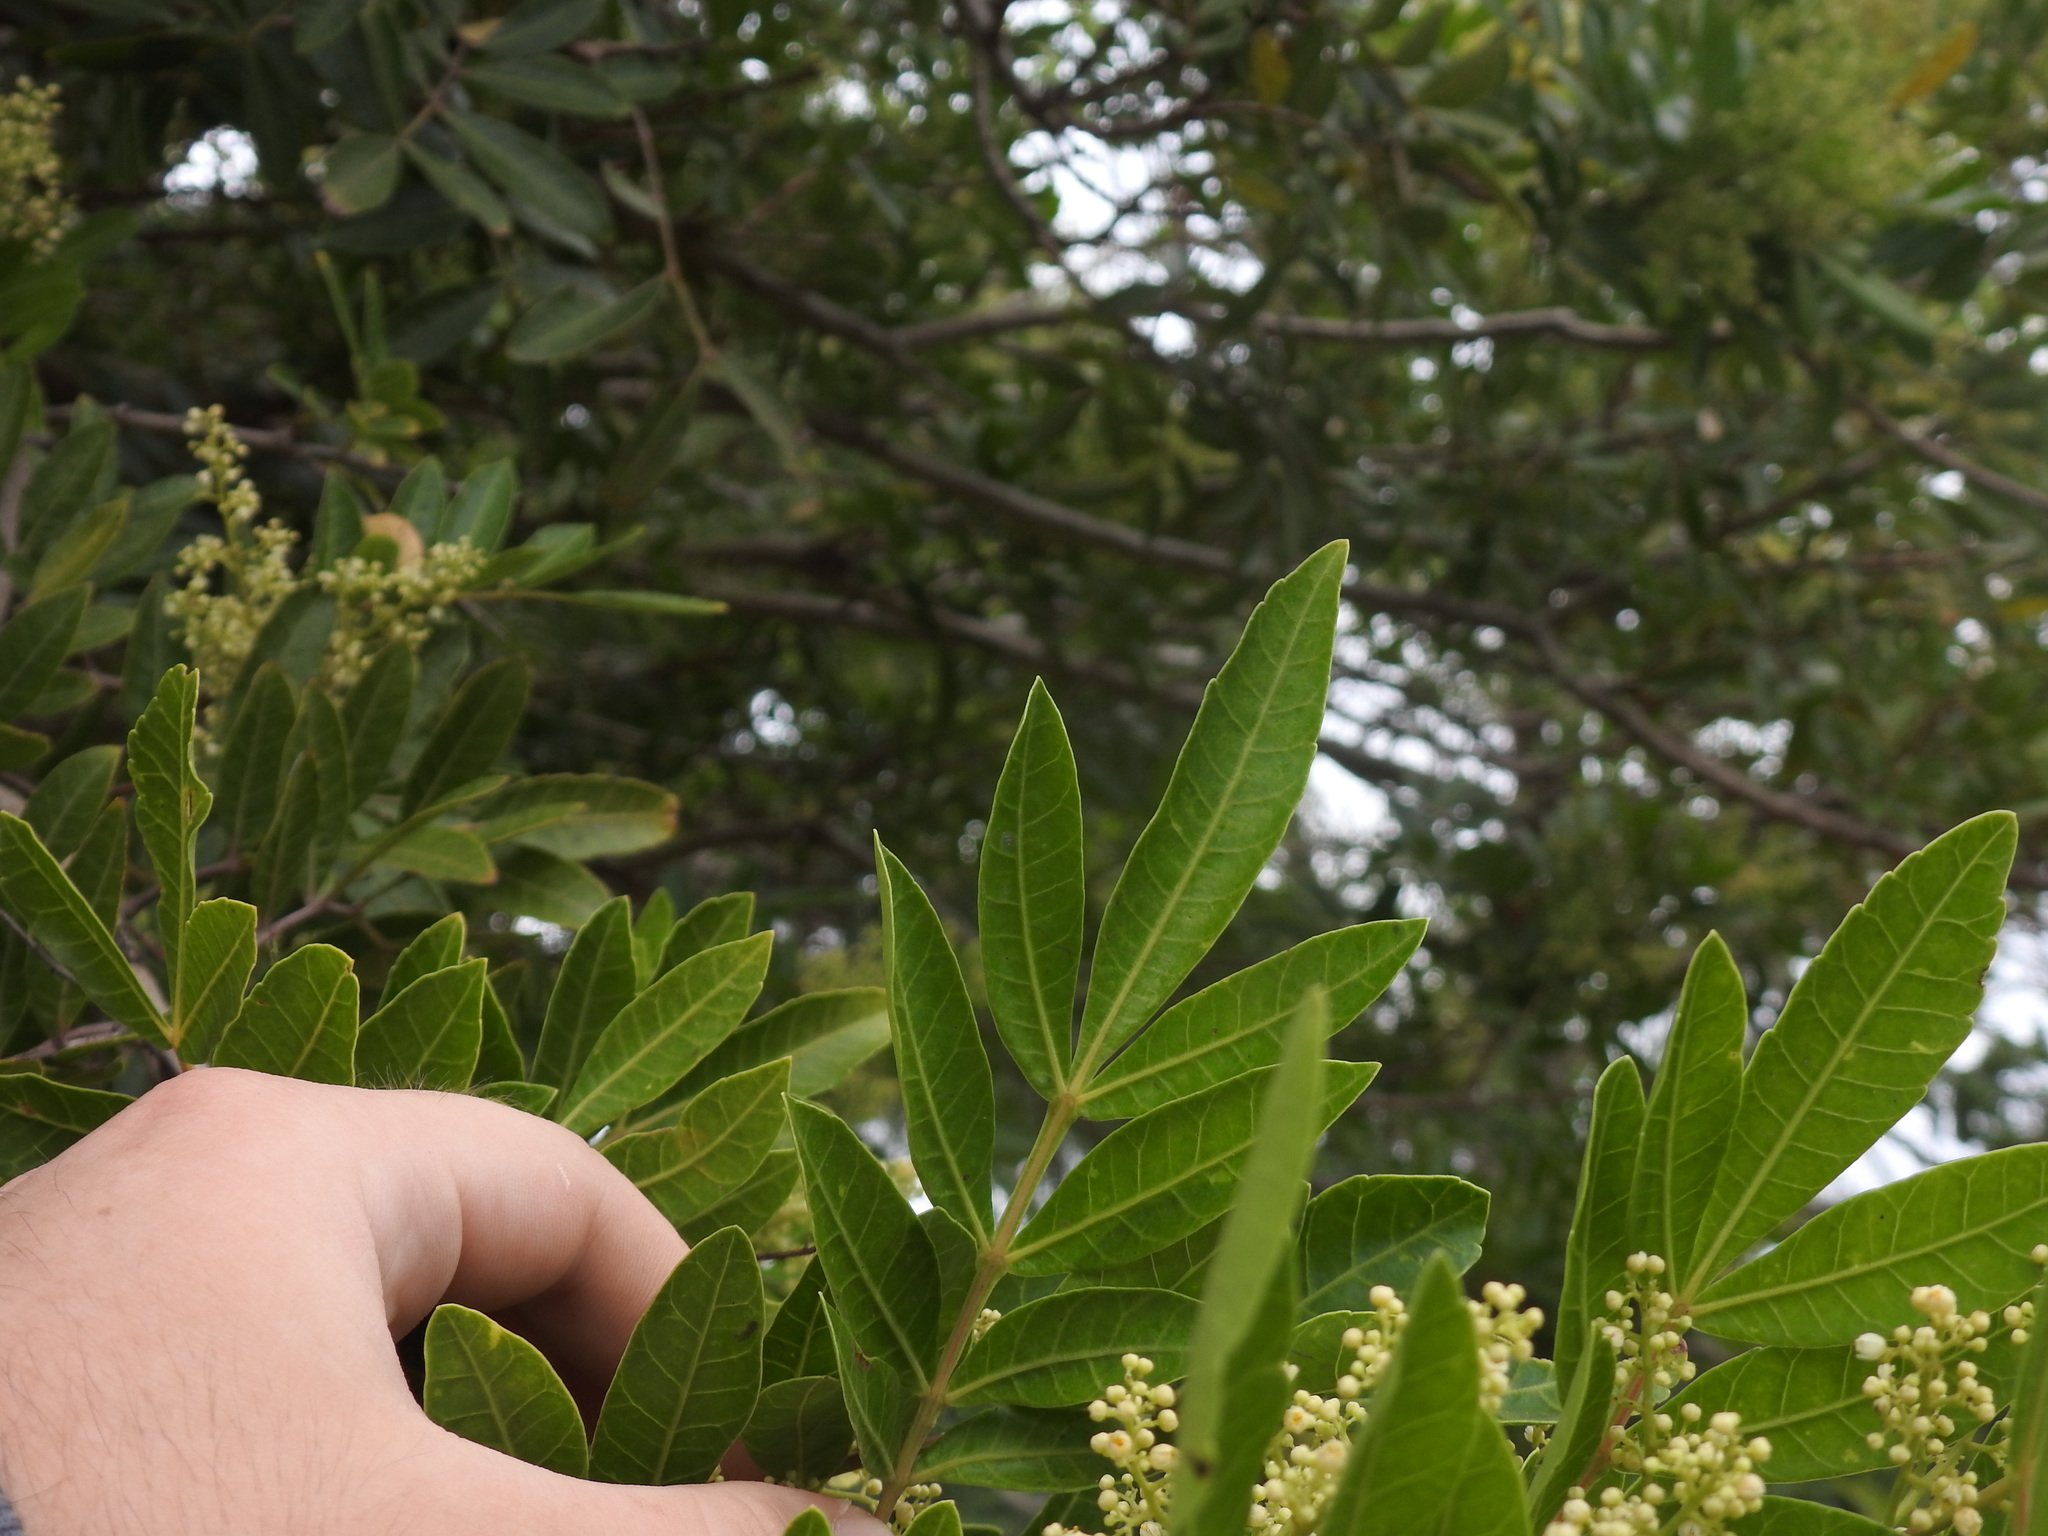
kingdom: Plantae
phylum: Tracheophyta
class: Magnoliopsida
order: Sapindales
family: Anacardiaceae
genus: Schinus
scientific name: Schinus terebinthifolia
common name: Brazilian peppertree
